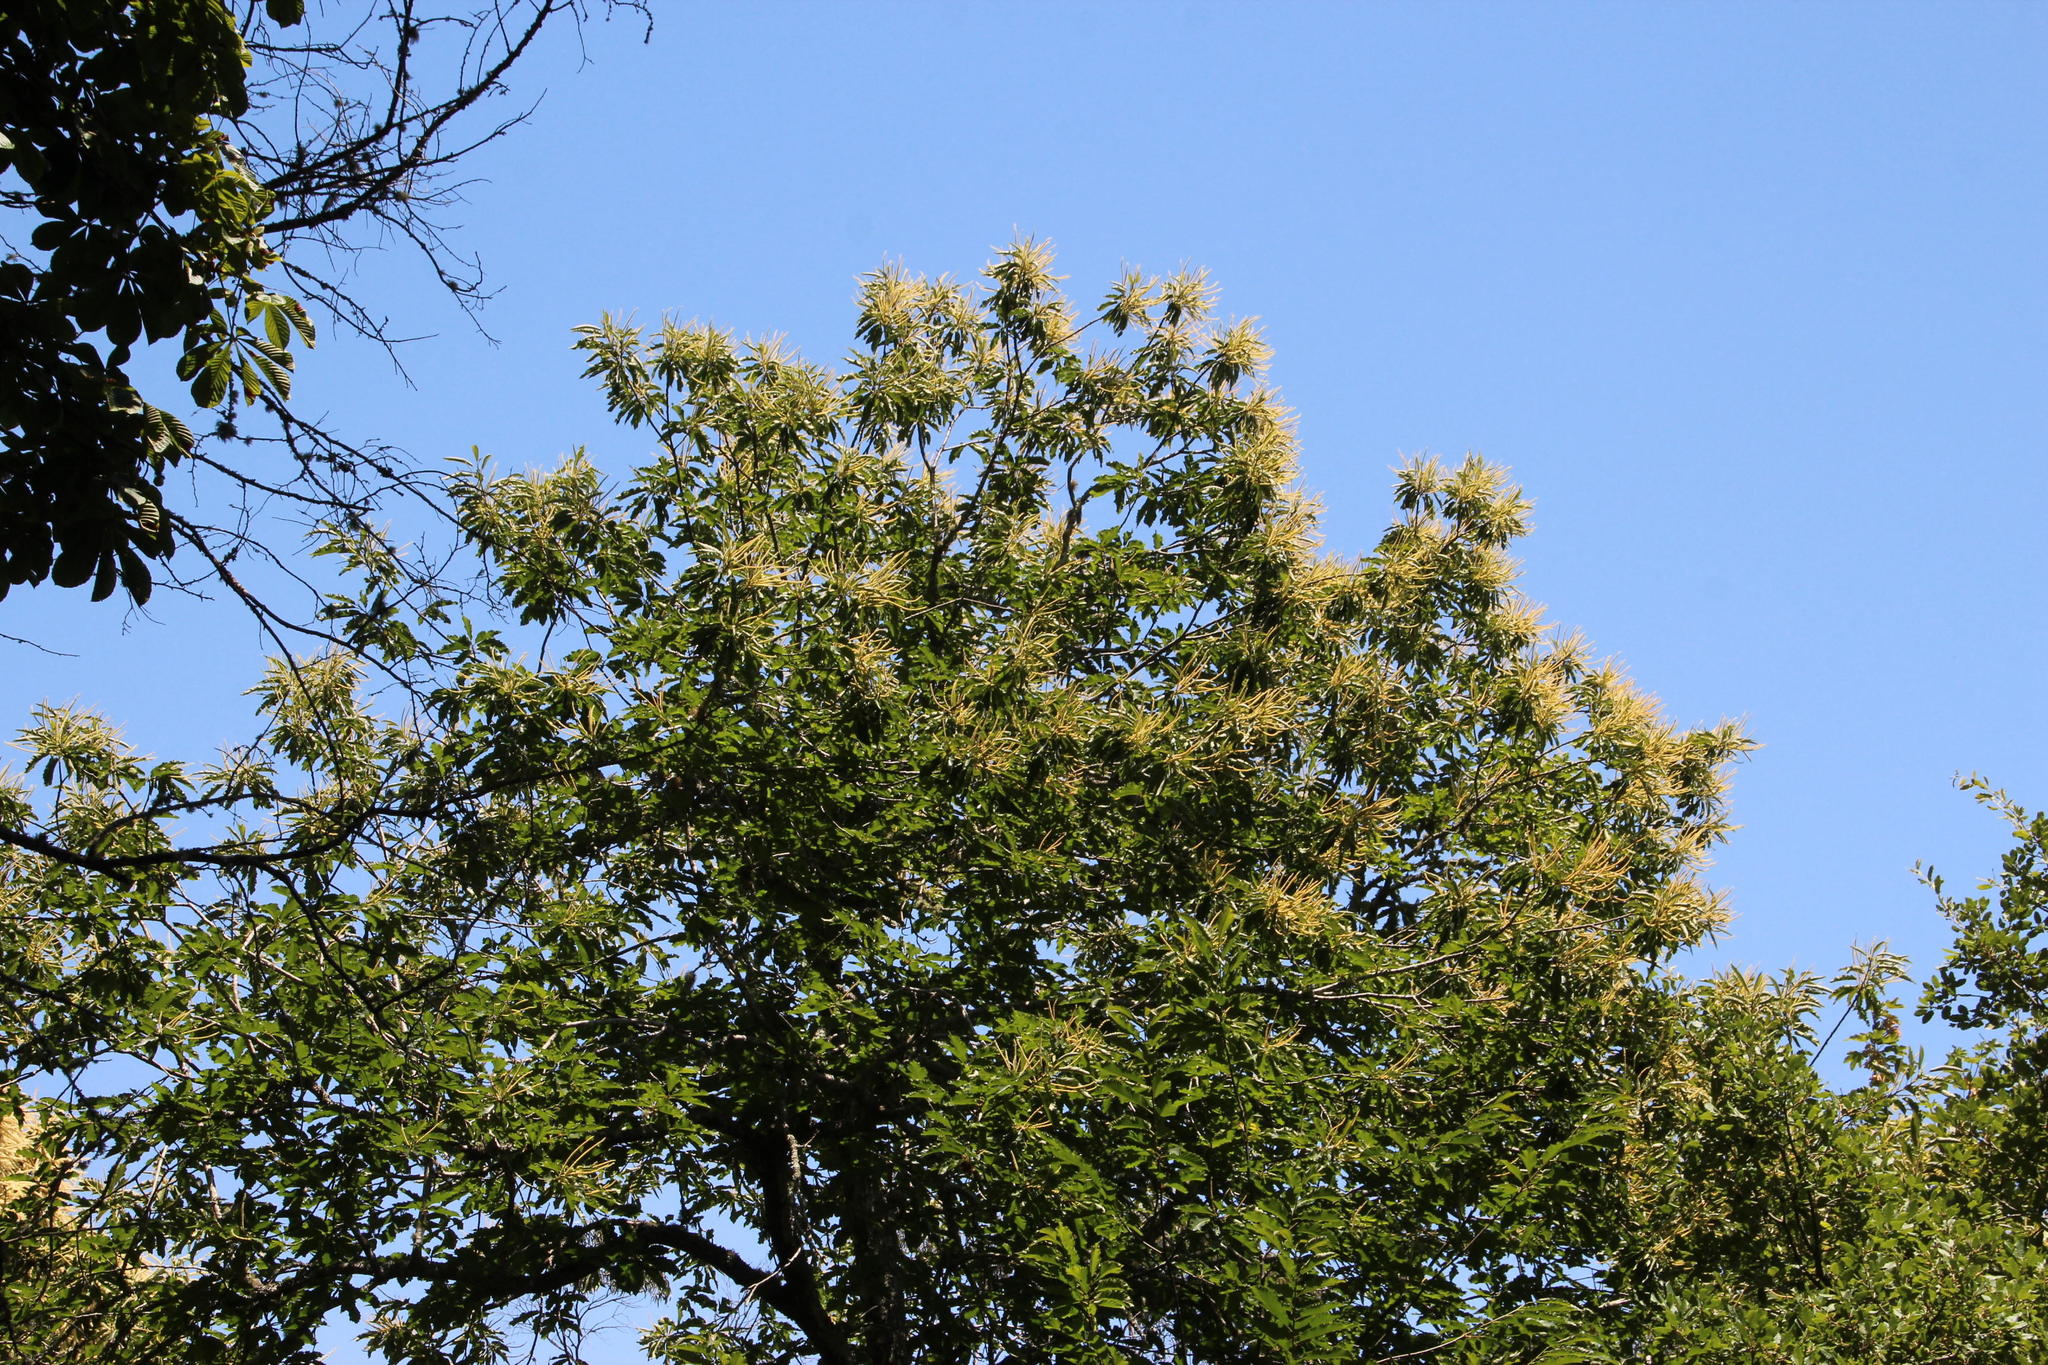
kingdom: Plantae
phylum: Tracheophyta
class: Magnoliopsida
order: Fagales
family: Fagaceae
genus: Castanea
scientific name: Castanea sativa
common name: Sweet chestnut
